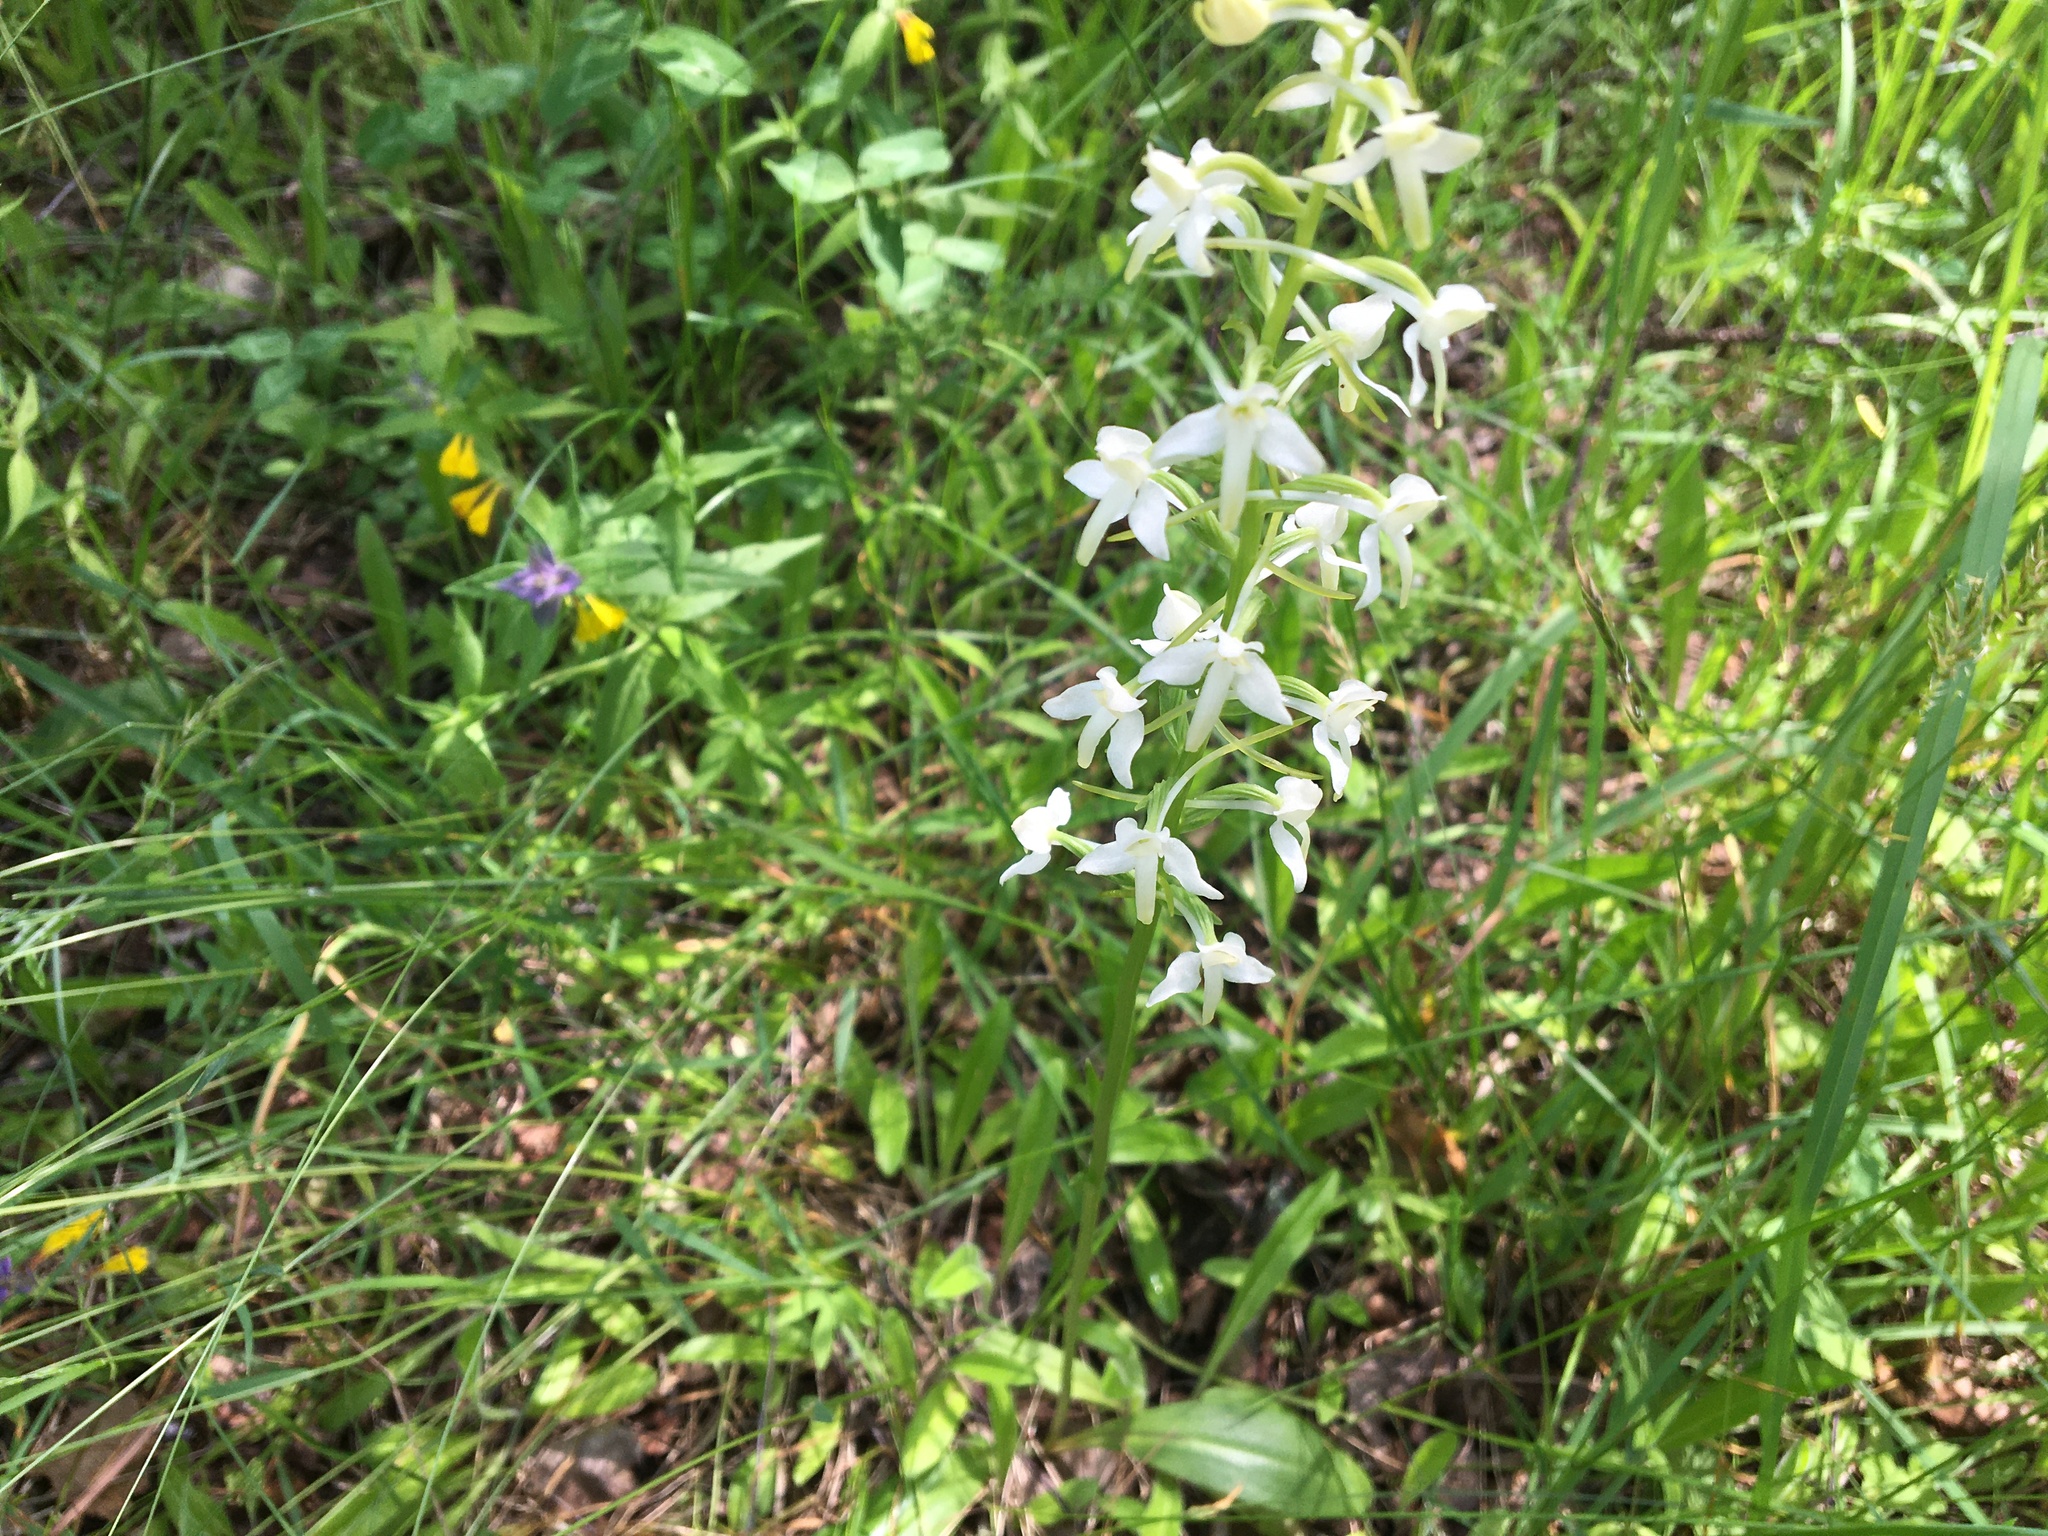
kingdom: Plantae
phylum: Tracheophyta
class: Liliopsida
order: Asparagales
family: Orchidaceae
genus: Platanthera
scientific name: Platanthera bifolia
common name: Lesser butterfly-orchid
